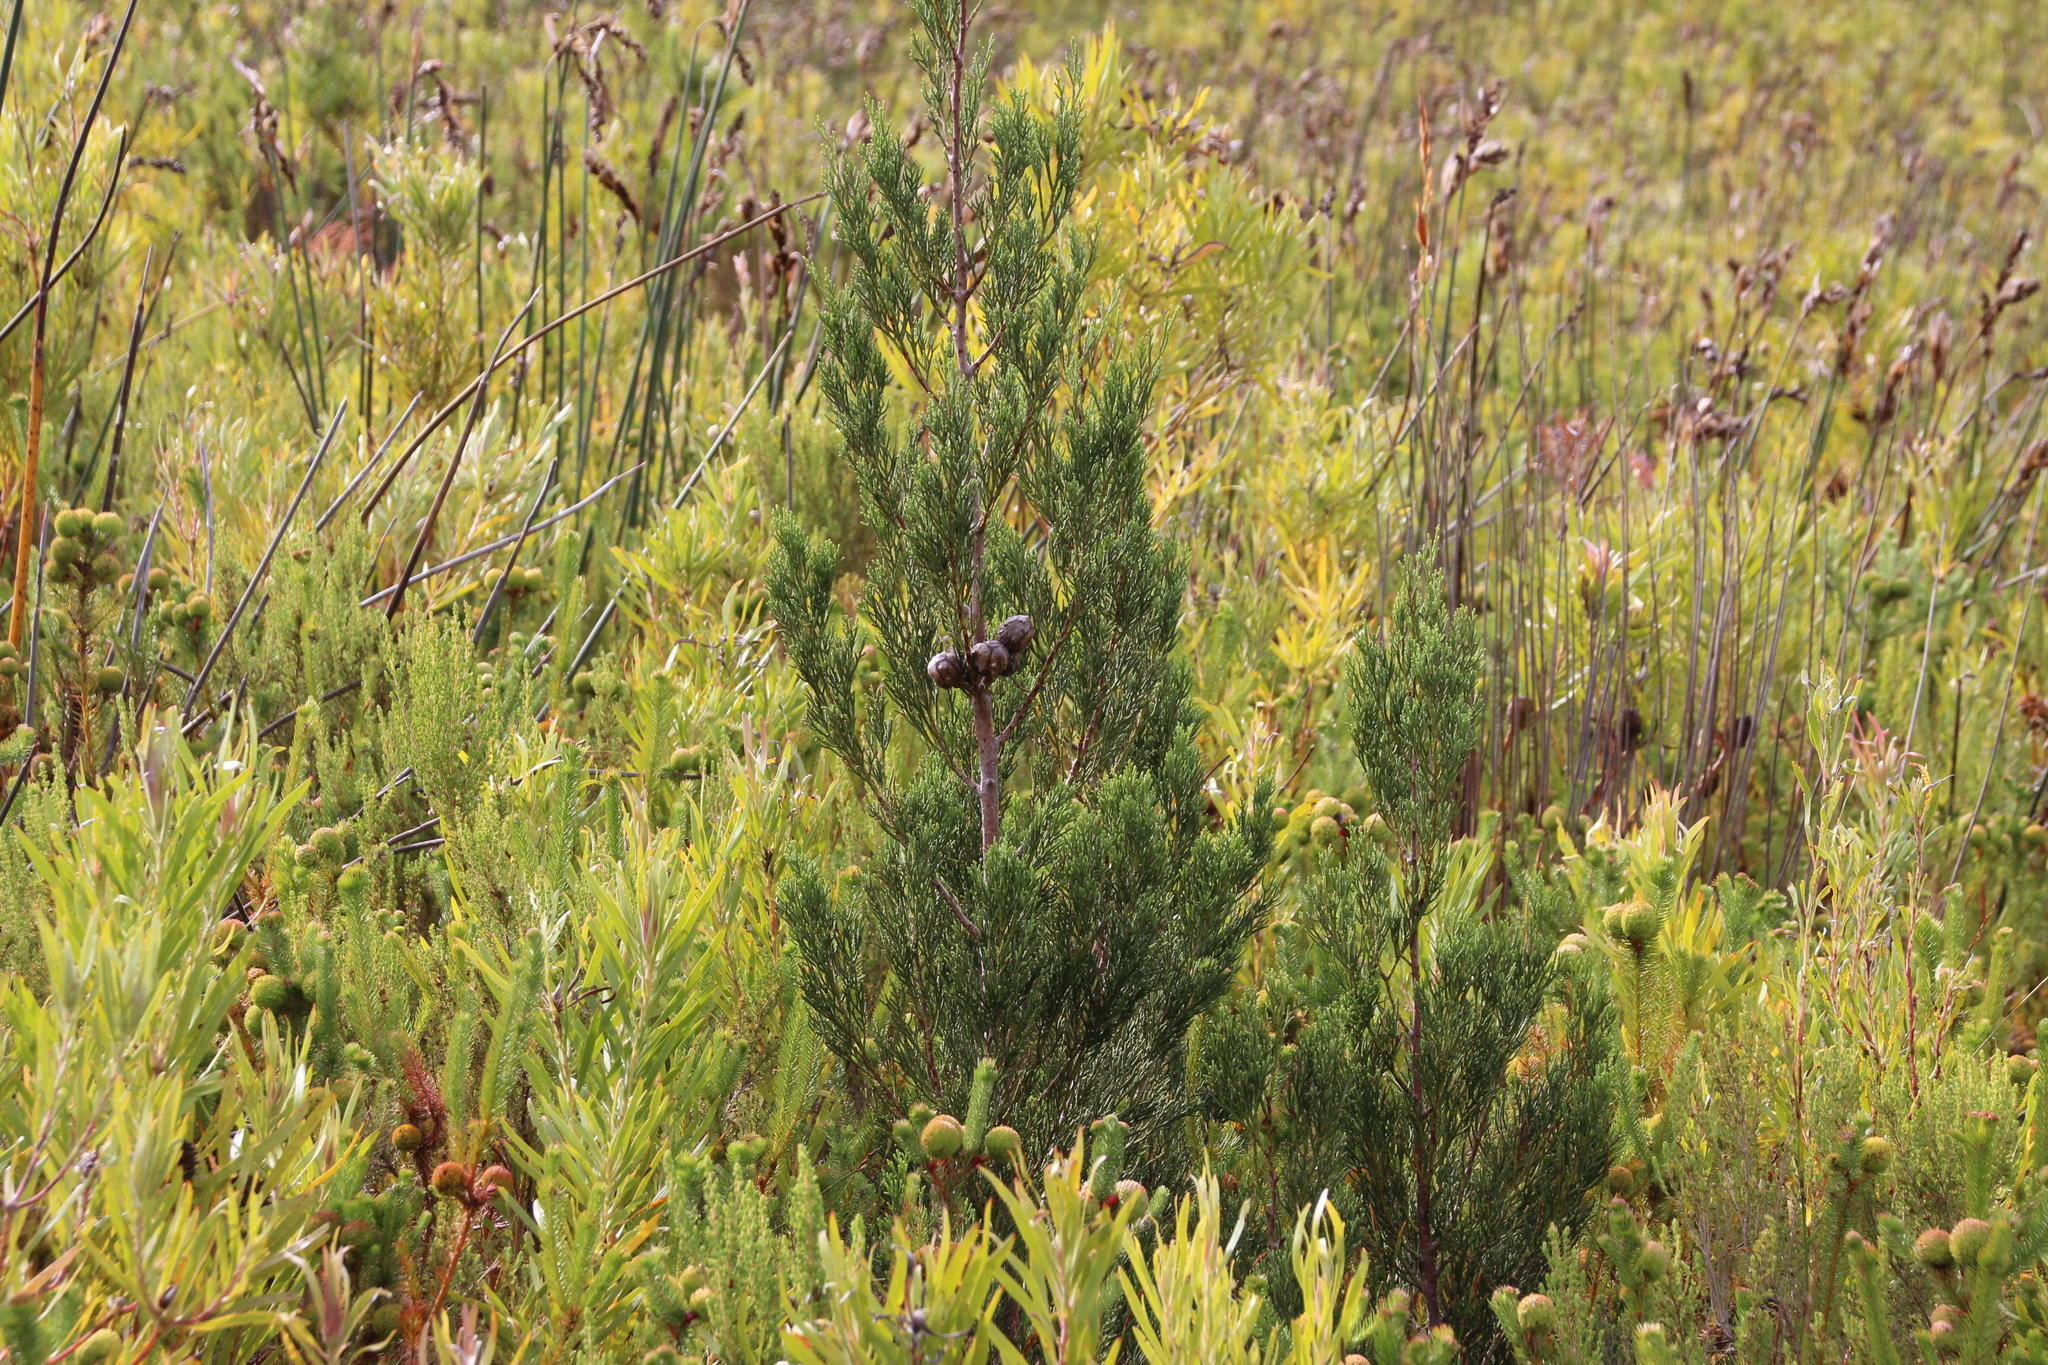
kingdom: Plantae
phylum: Tracheophyta
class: Pinopsida
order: Pinales
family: Cupressaceae
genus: Widdringtonia
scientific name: Widdringtonia nodiflora
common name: Cape cypress
